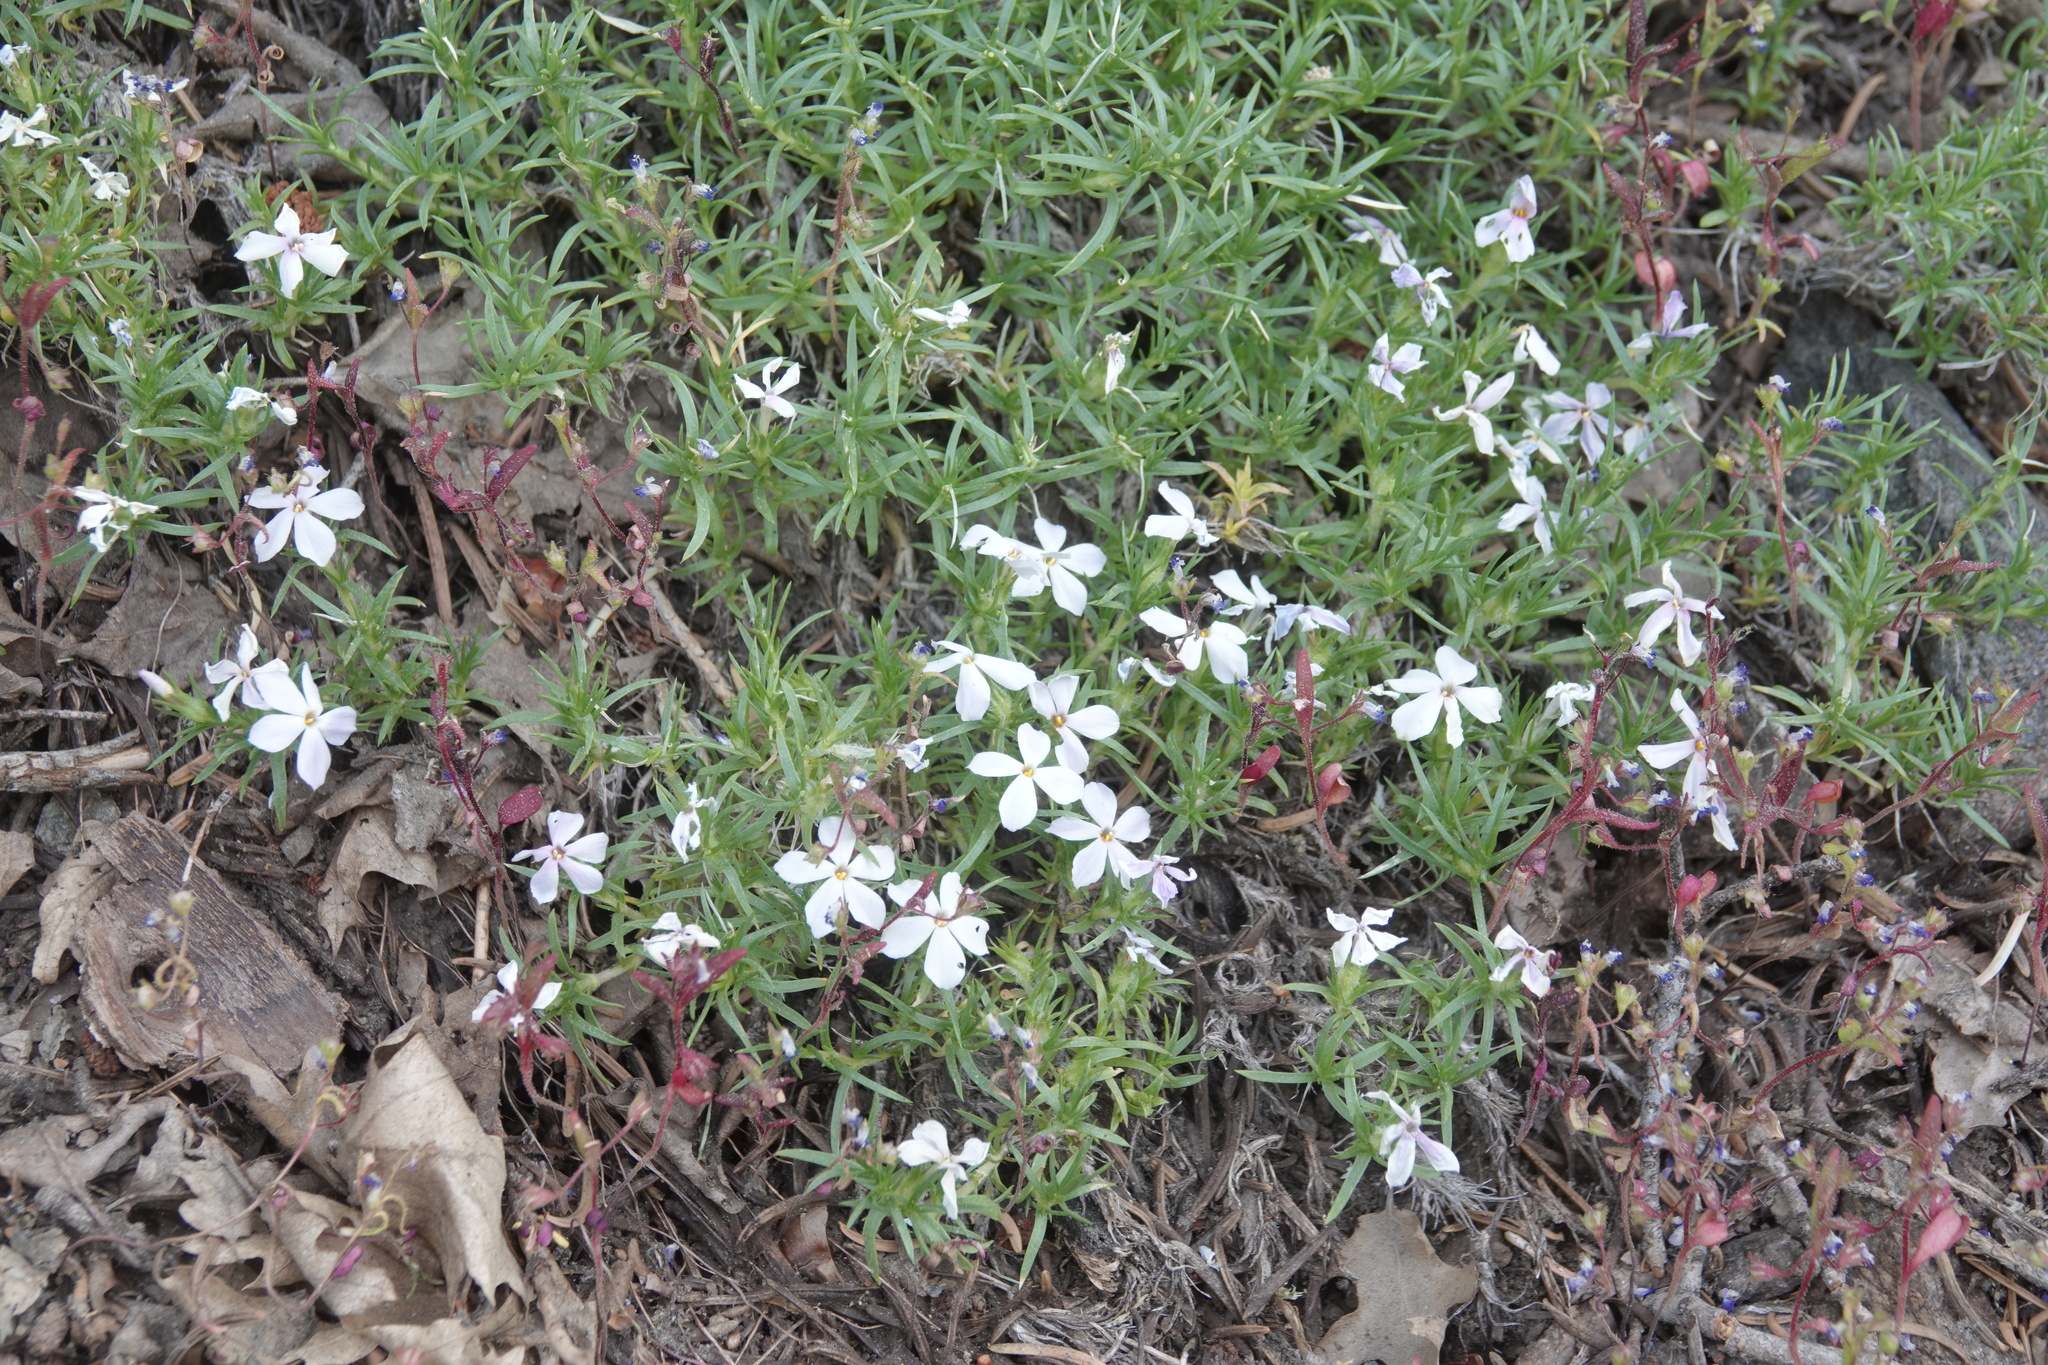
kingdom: Plantae
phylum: Tracheophyta
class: Magnoliopsida
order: Ericales
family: Polemoniaceae
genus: Phlox
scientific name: Phlox austromontana
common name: Desert phlox
